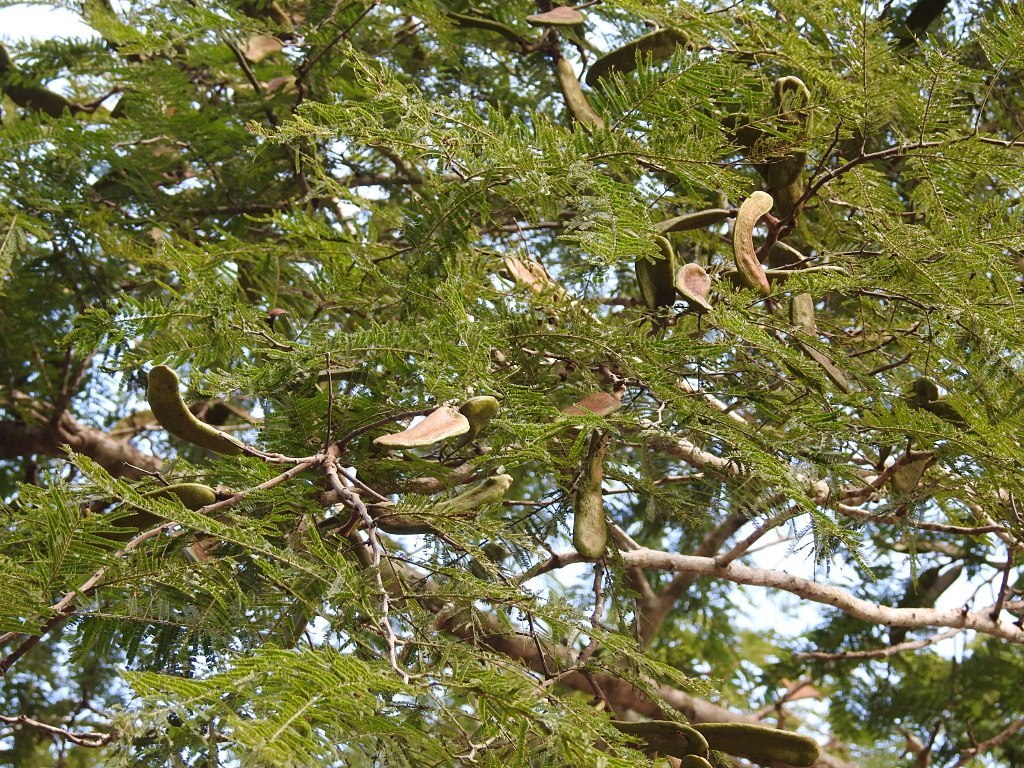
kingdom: Plantae
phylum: Tracheophyta
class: Magnoliopsida
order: Fabales
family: Fabaceae
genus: Vachellia
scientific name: Vachellia pennatula
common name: Fern-leaf acacia
